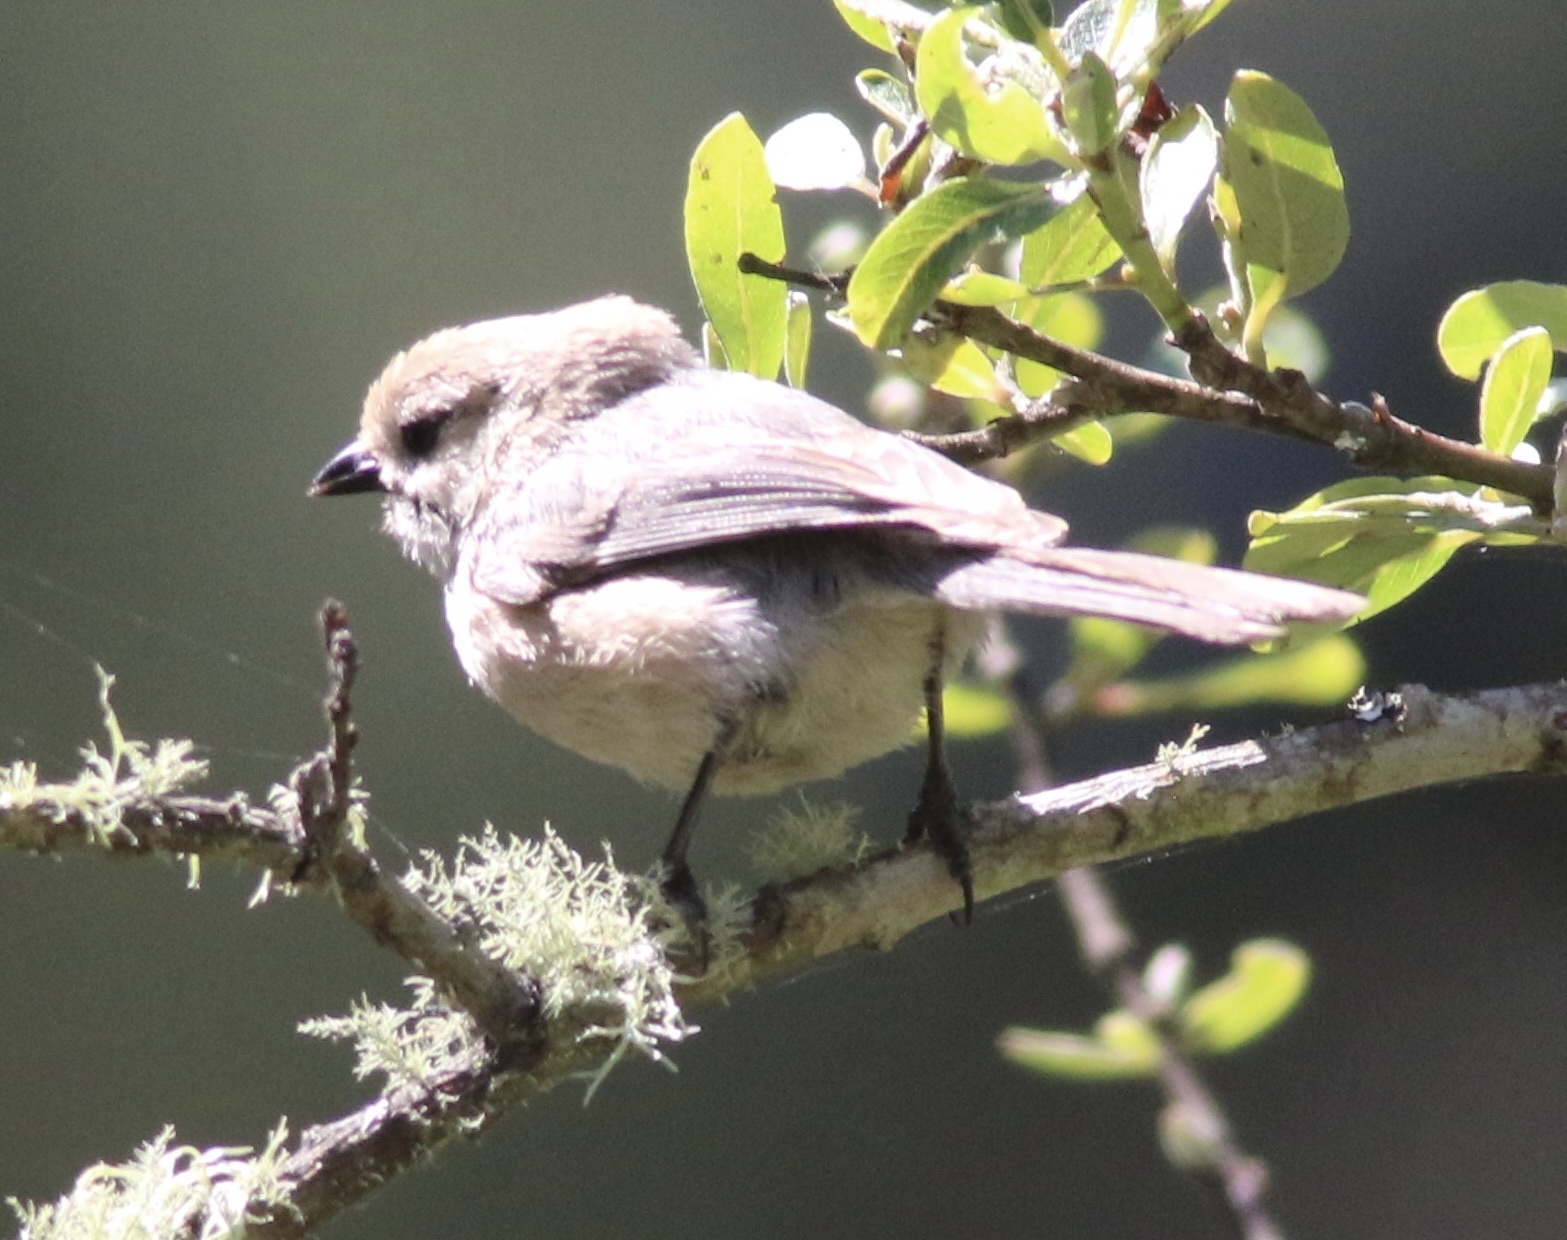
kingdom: Animalia
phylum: Chordata
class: Aves
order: Passeriformes
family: Aegithalidae
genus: Psaltriparus
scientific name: Psaltriparus minimus
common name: American bushtit
